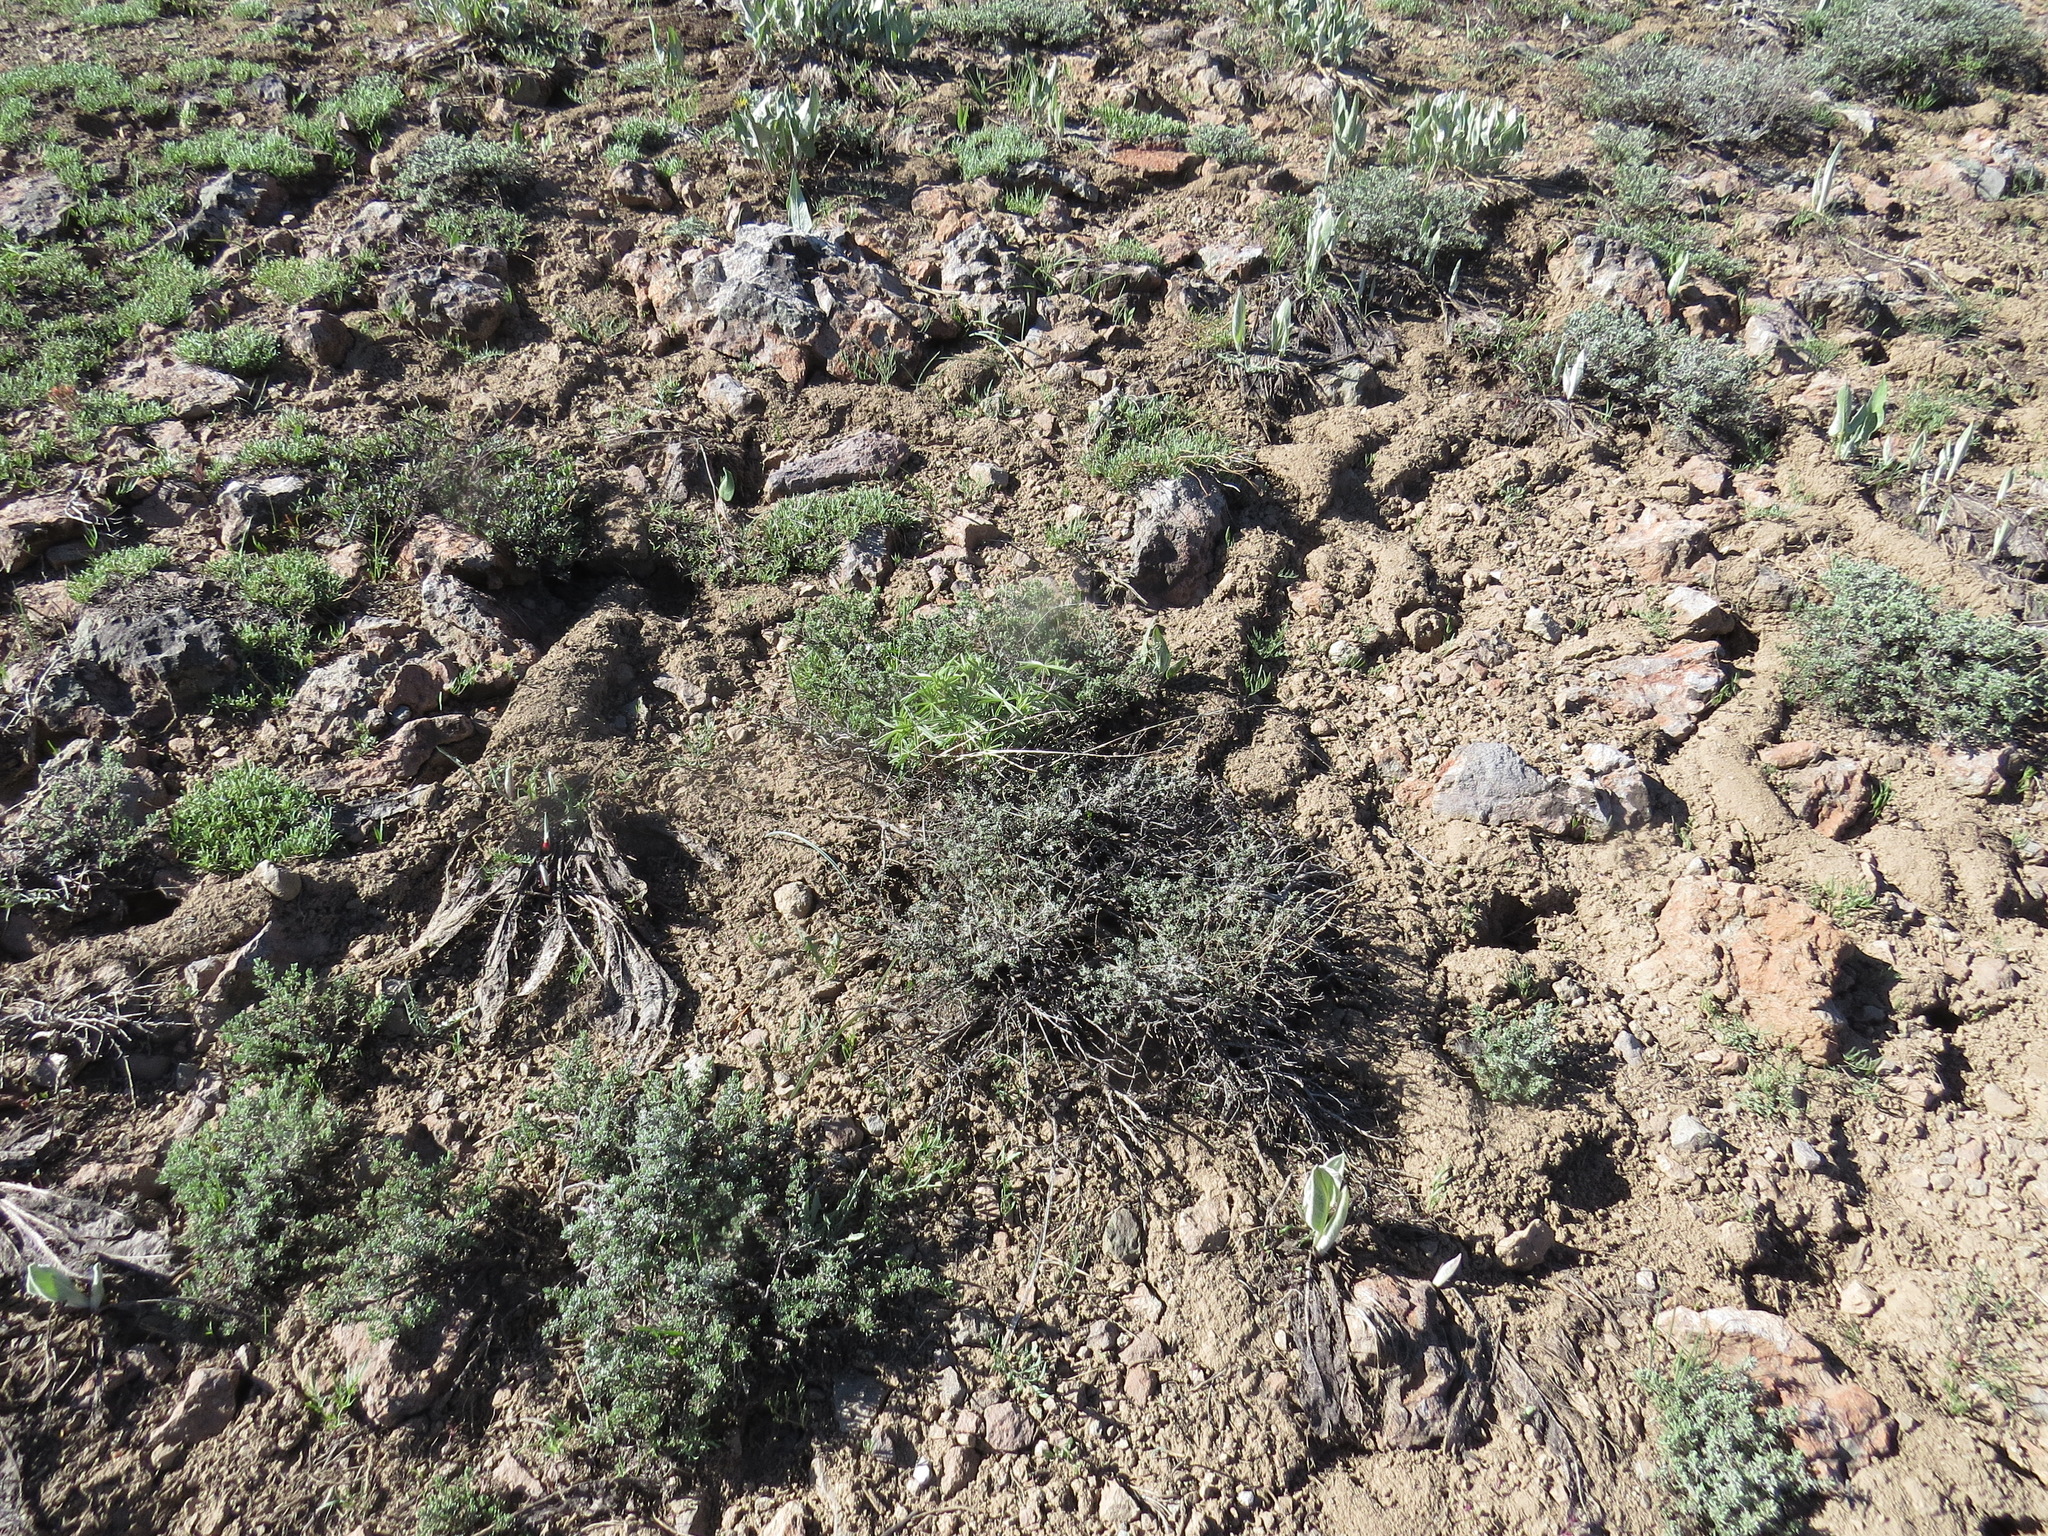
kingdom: Animalia
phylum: Chordata
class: Aves
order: Passeriformes
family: Passerellidae
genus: Junco
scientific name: Junco hyemalis
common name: Dark-eyed junco
